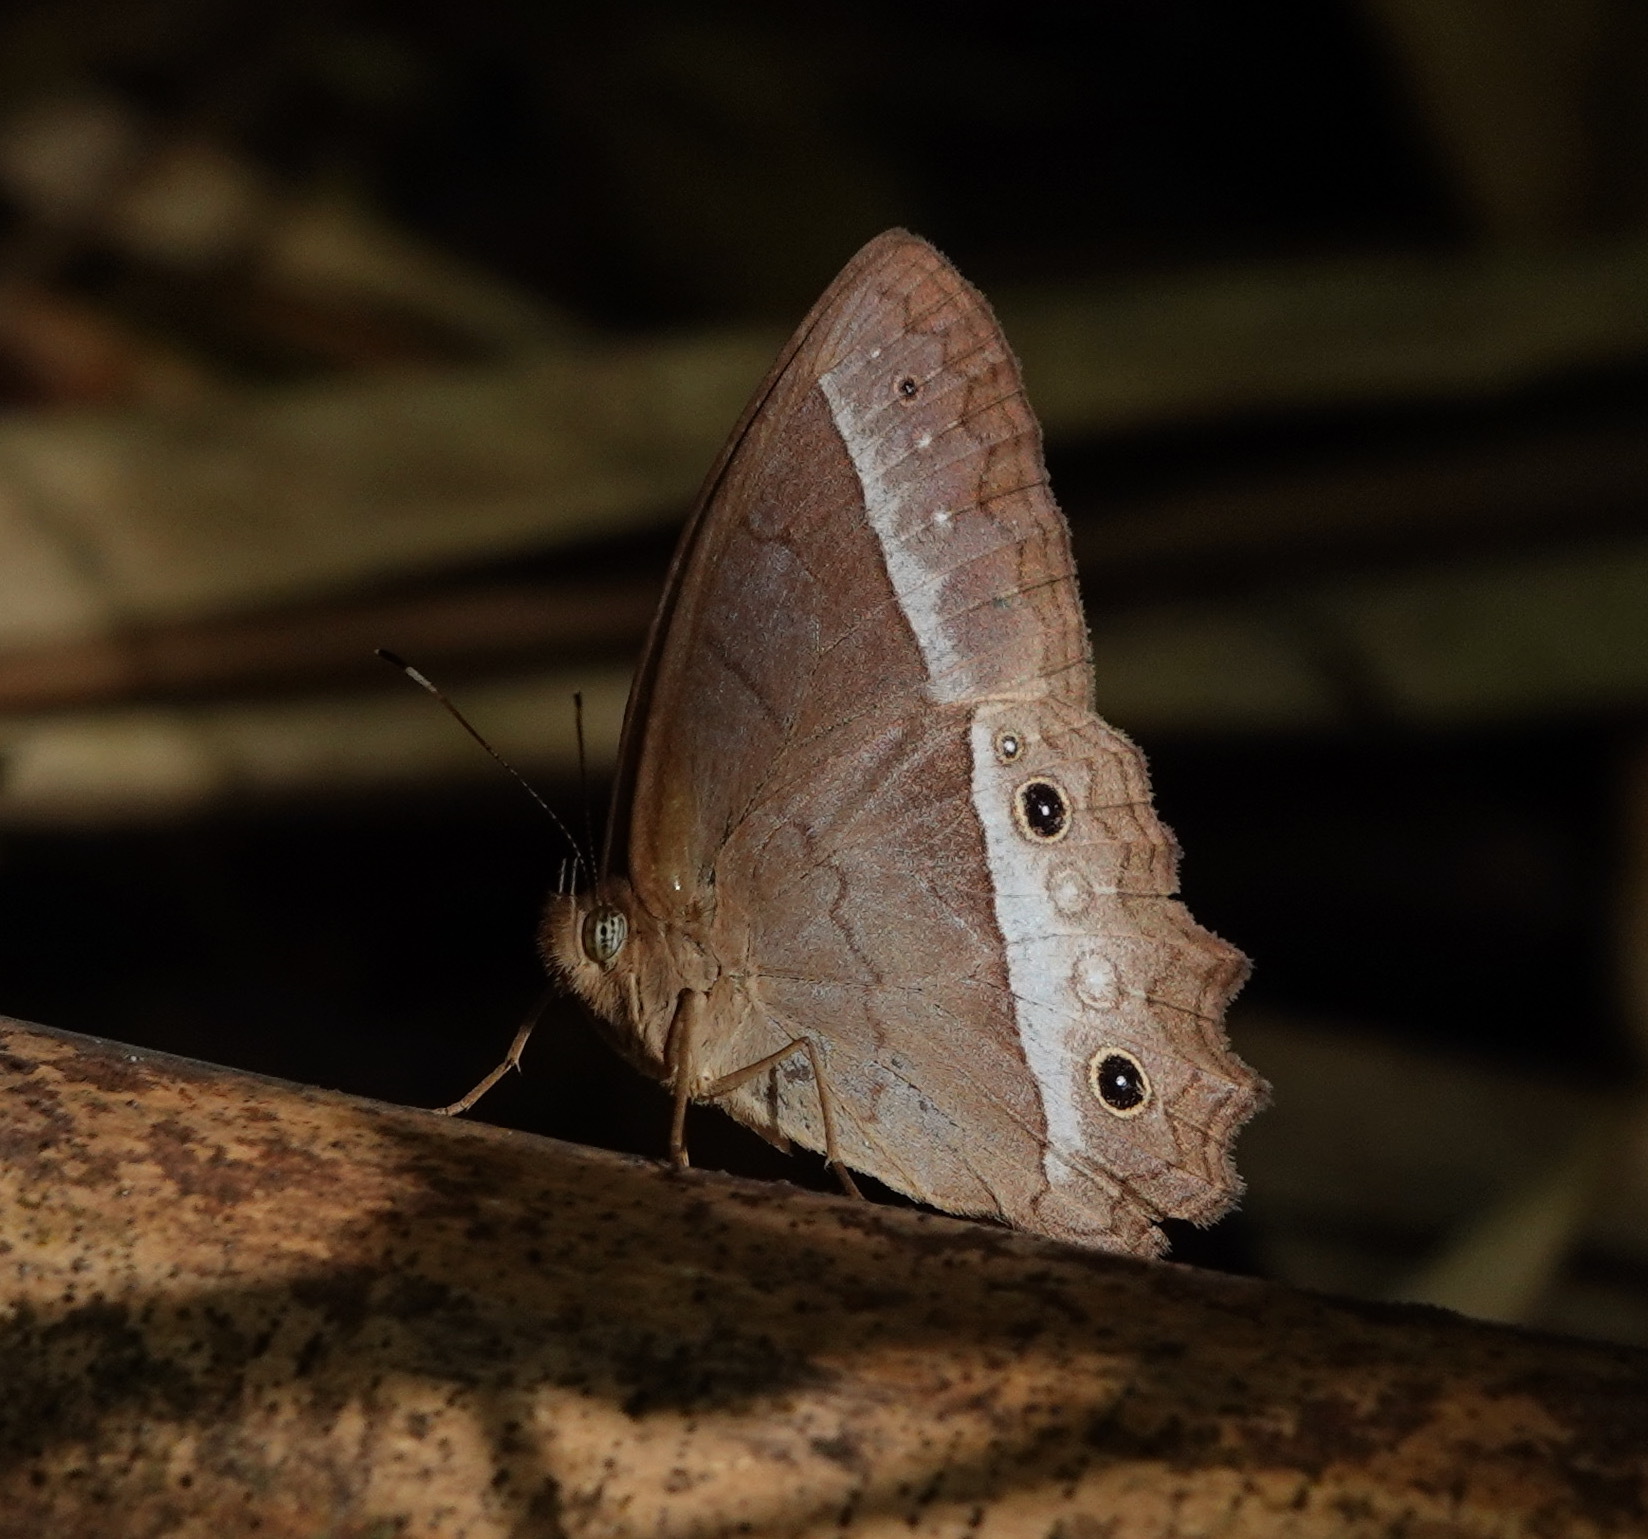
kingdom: Animalia
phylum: Arthropoda
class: Insecta
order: Lepidoptera
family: Nymphalidae
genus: Harjesia
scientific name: Harjesia blanda
